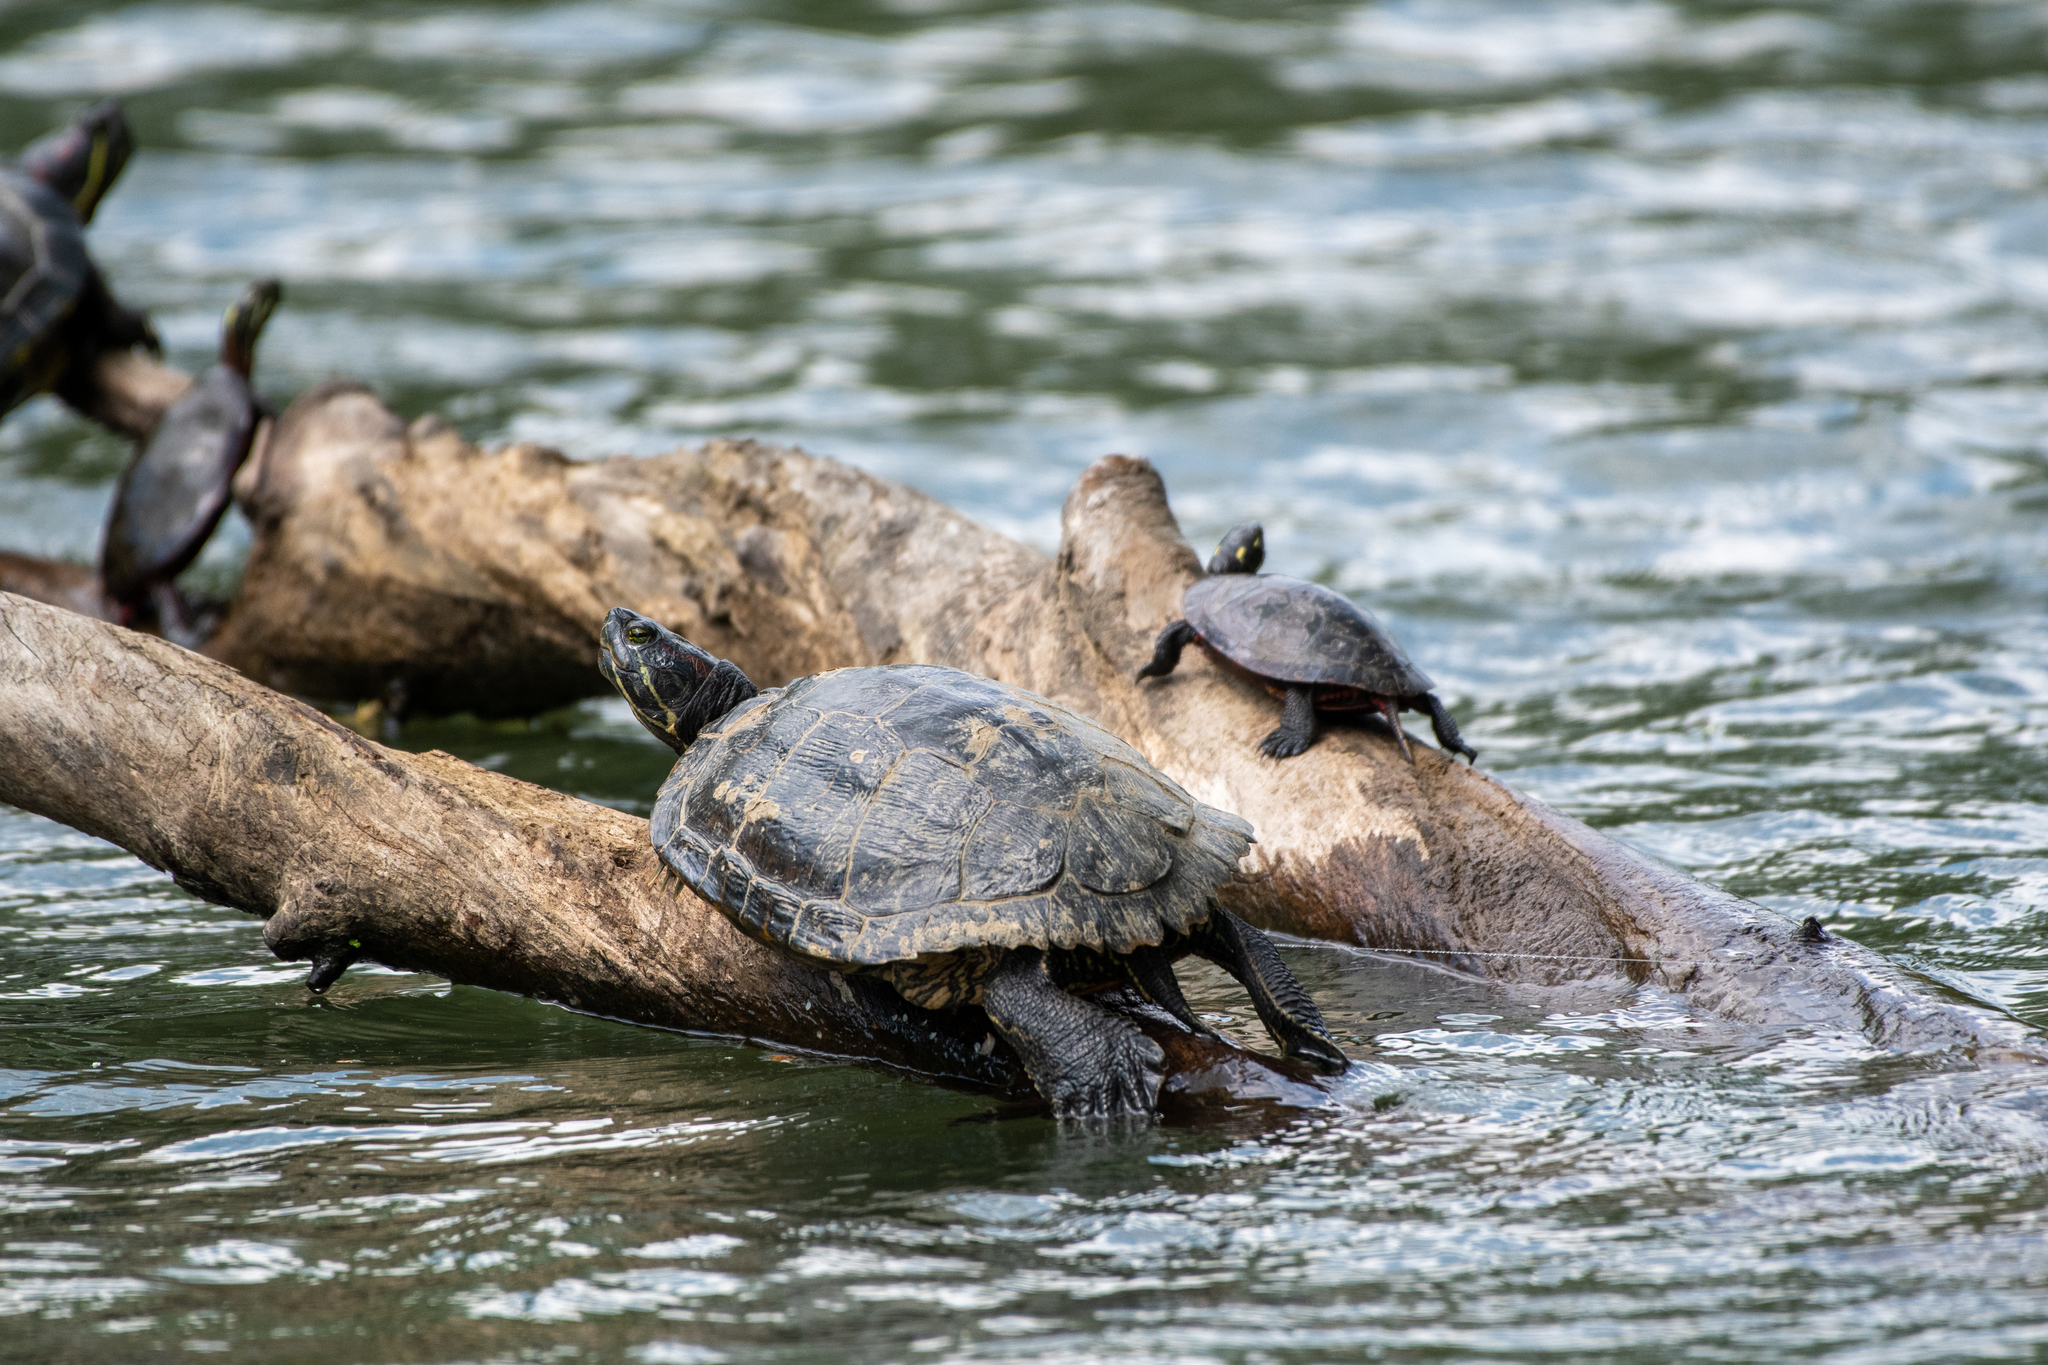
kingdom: Animalia
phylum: Chordata
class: Testudines
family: Emydidae
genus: Chrysemys
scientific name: Chrysemys picta
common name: Painted turtle
